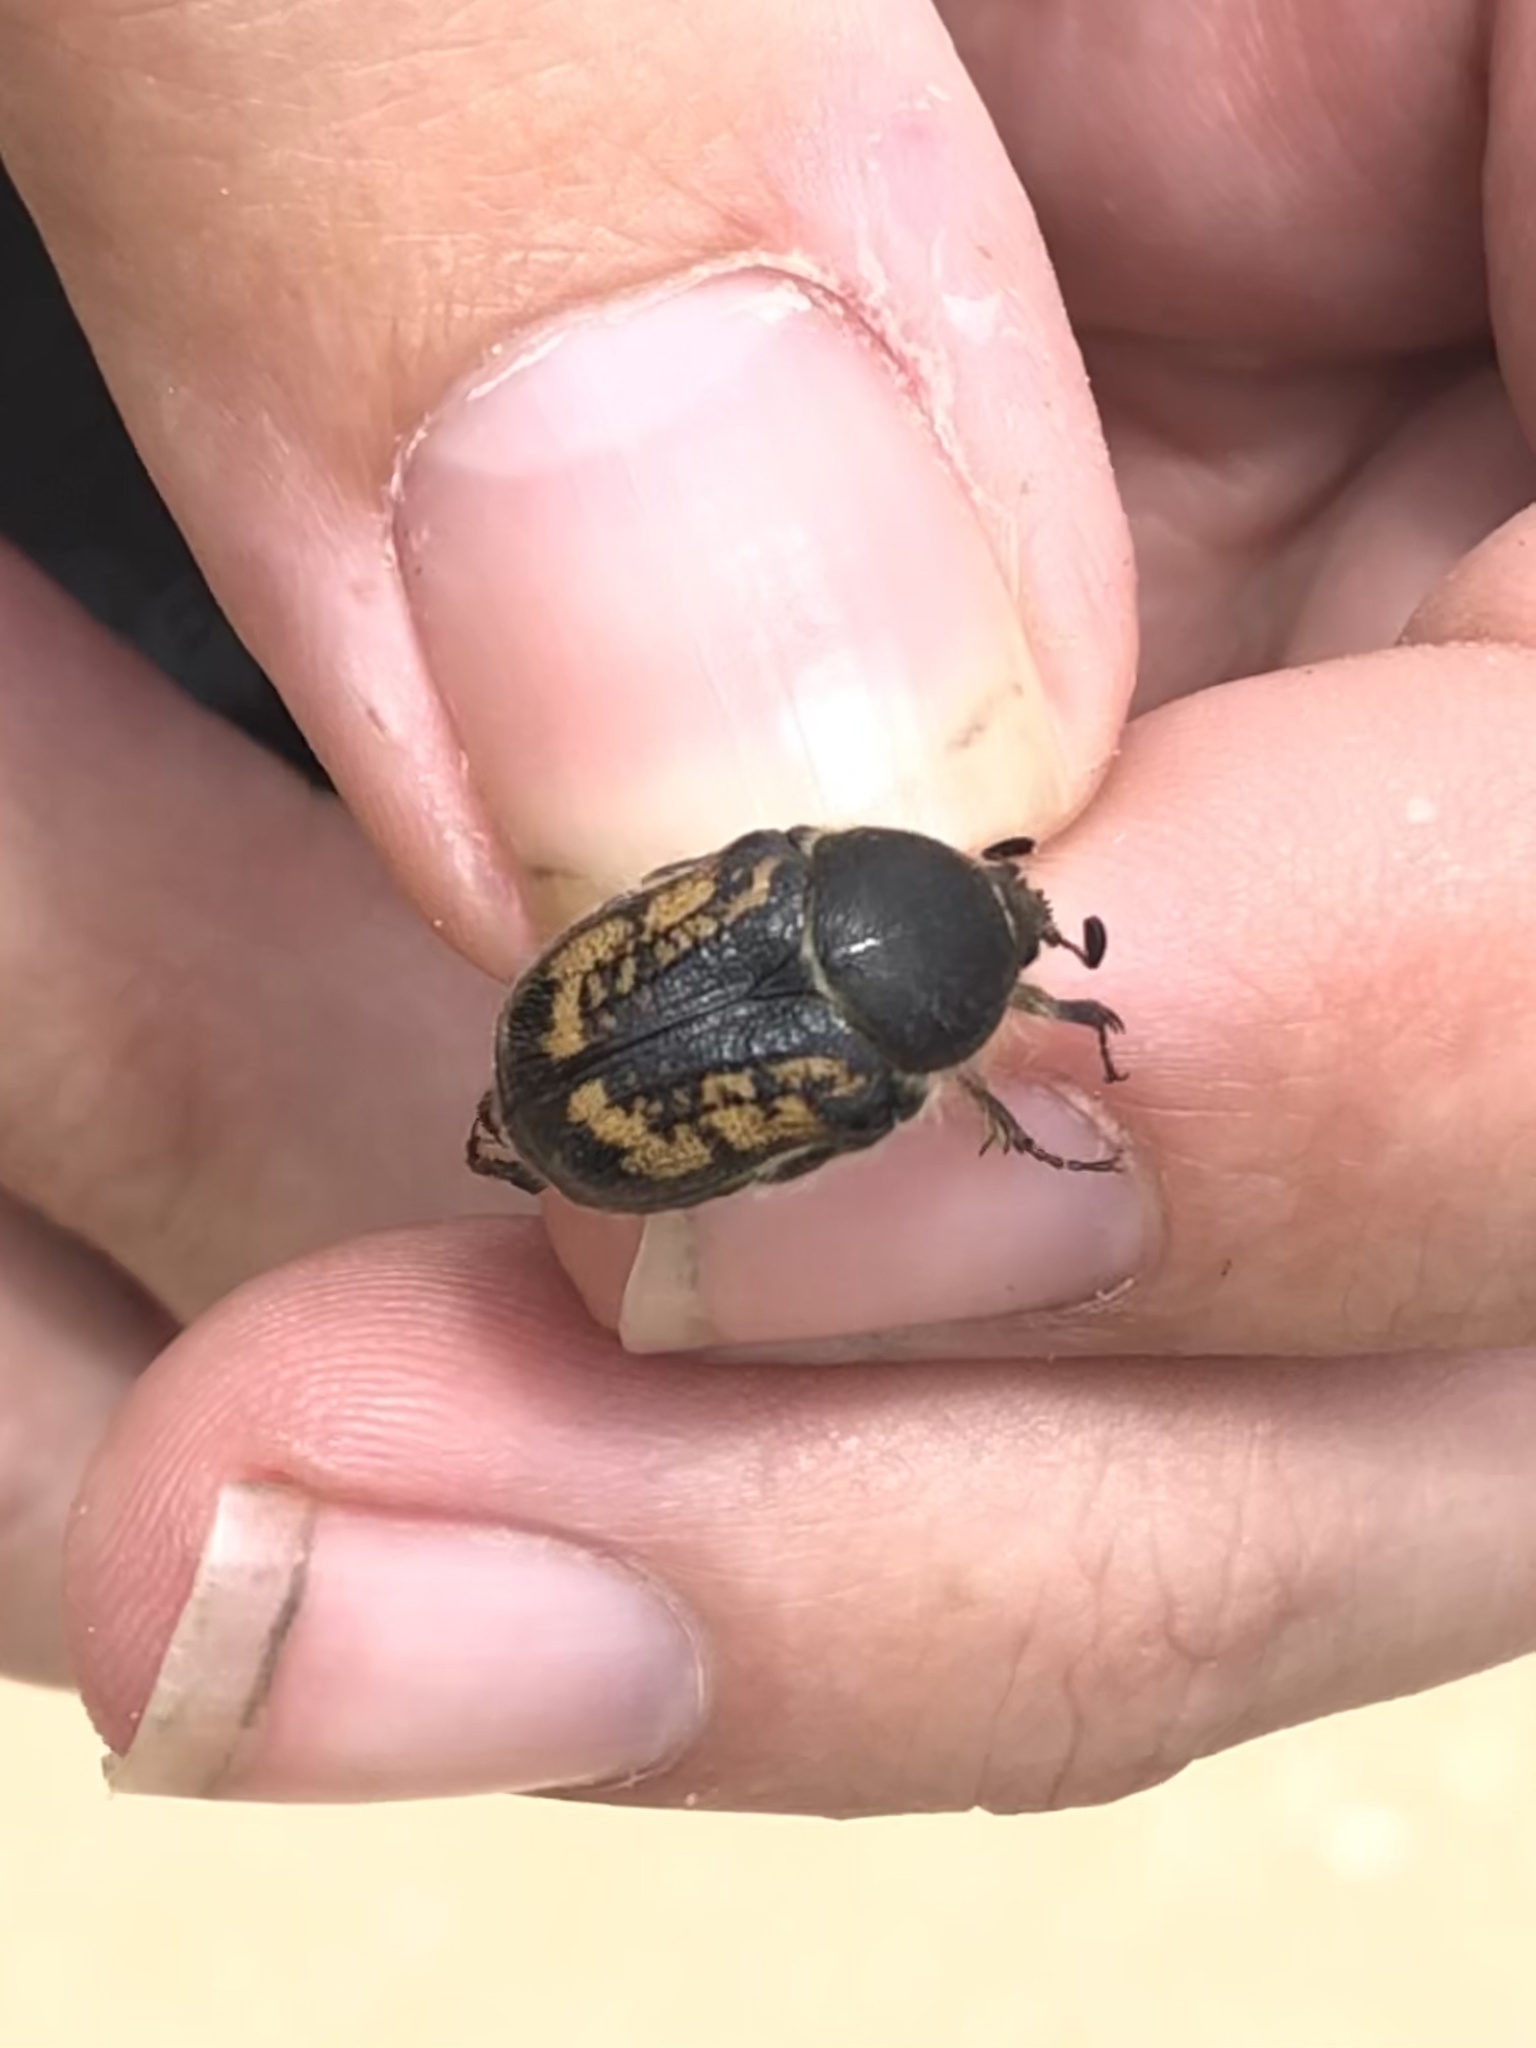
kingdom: Animalia
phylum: Arthropoda
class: Insecta
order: Coleoptera
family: Scarabaeidae
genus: Euphoria
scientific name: Euphoria pilipennis
